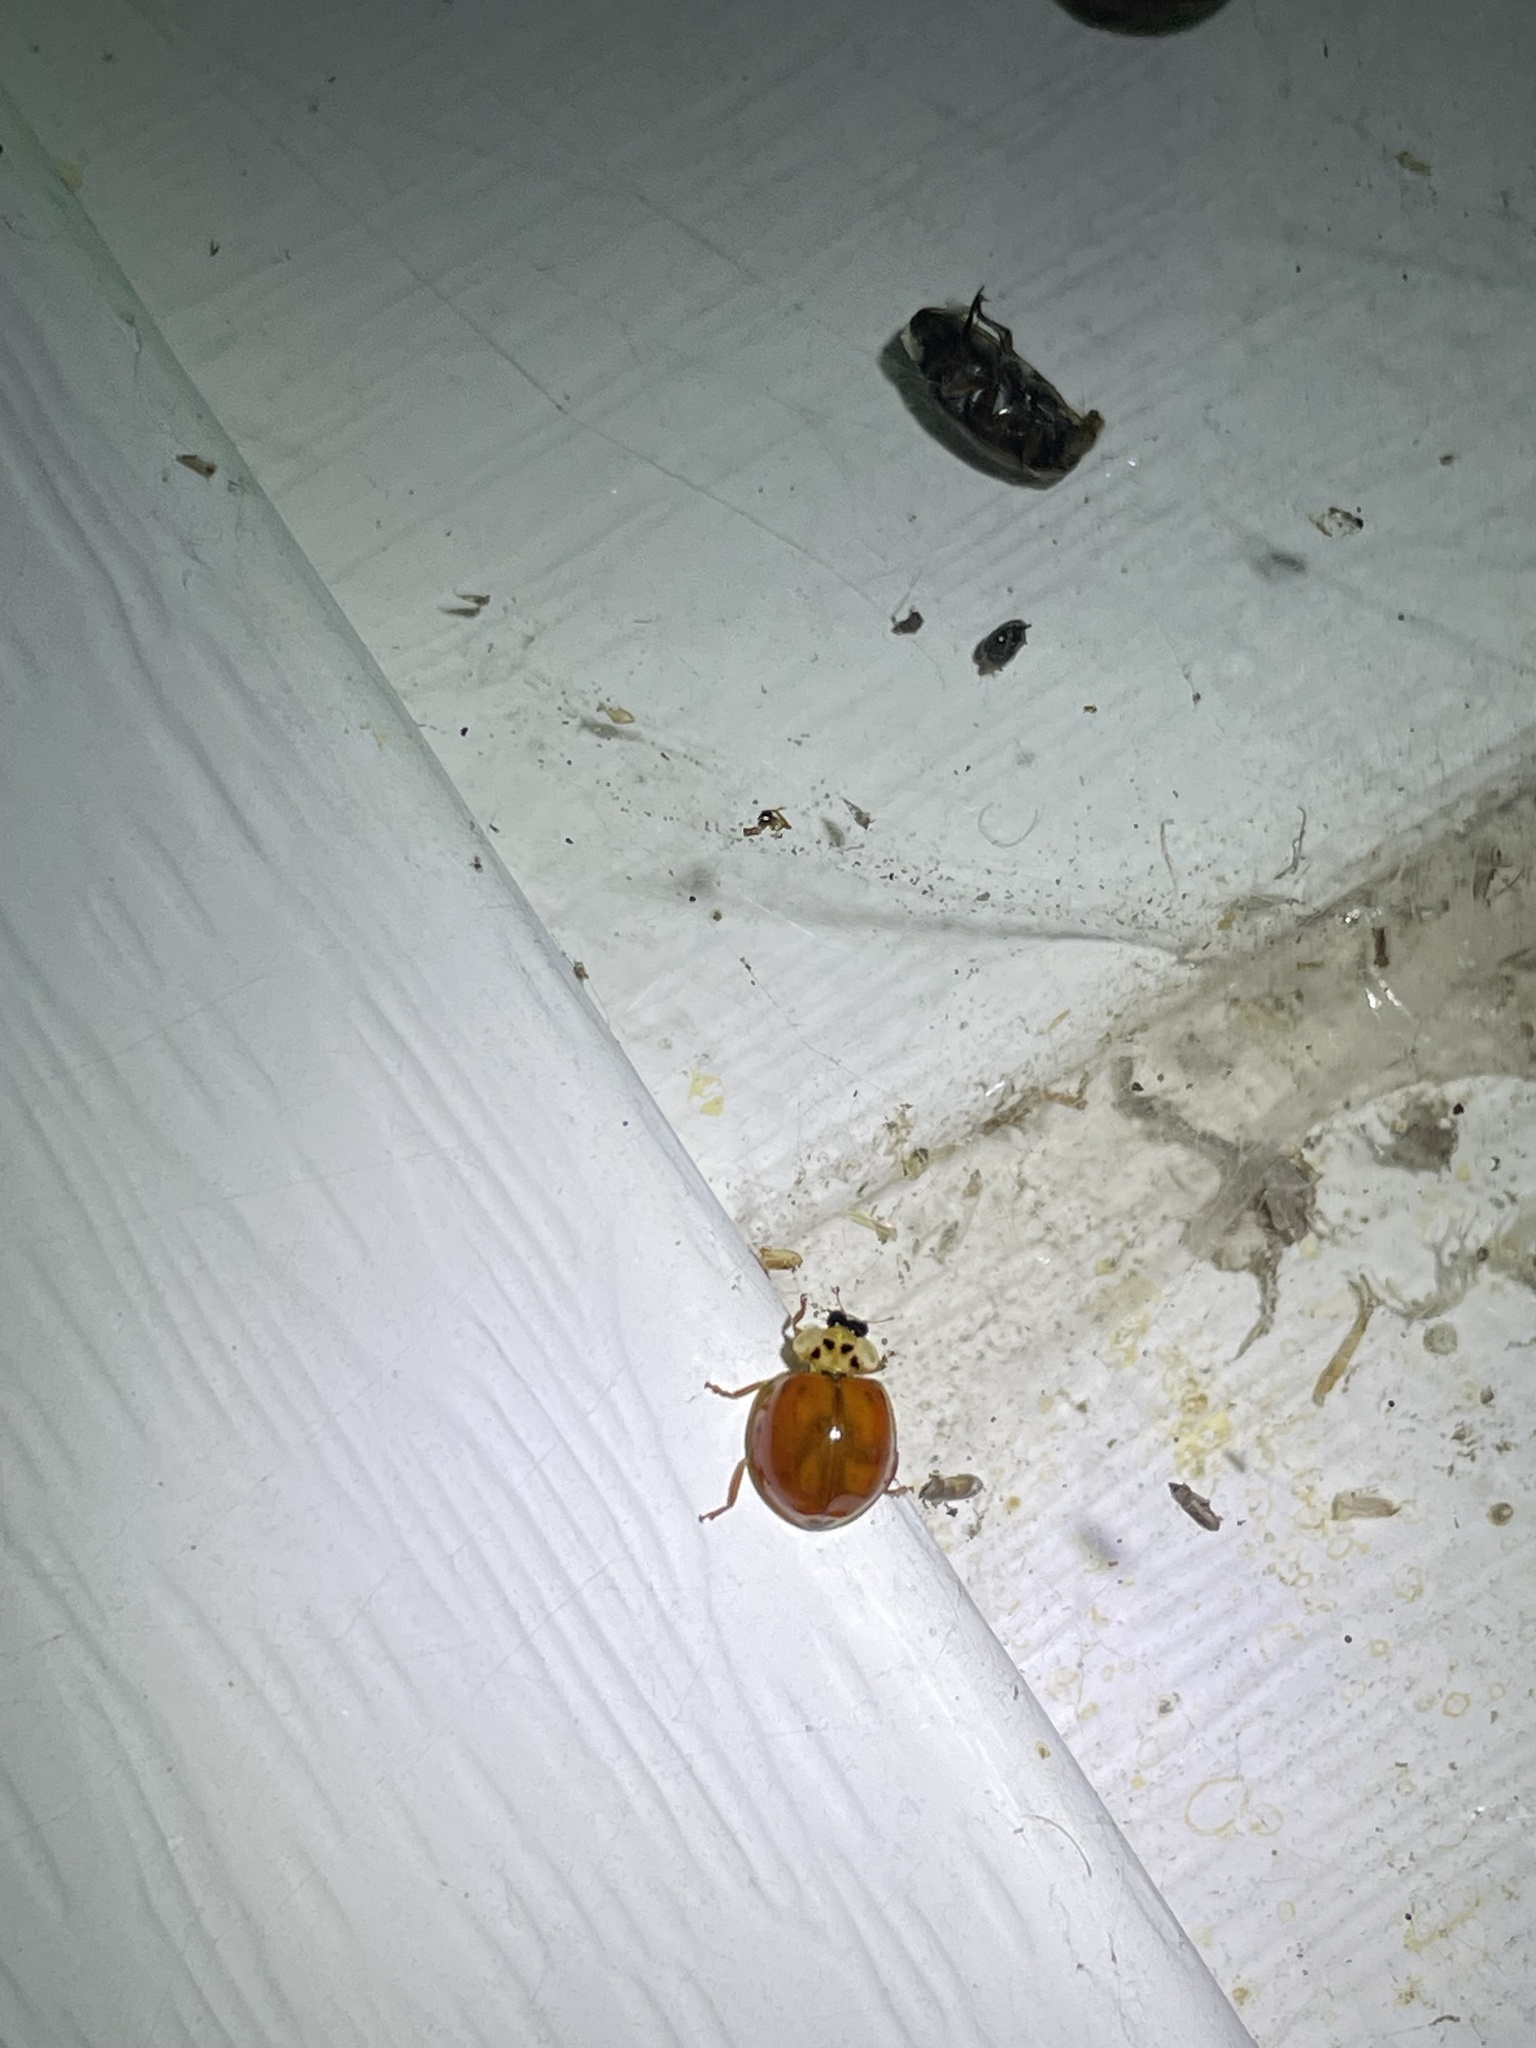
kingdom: Animalia
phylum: Arthropoda
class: Insecta
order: Coleoptera
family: Coccinellidae
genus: Harmonia
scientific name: Harmonia axyridis
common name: Harlequin ladybird
